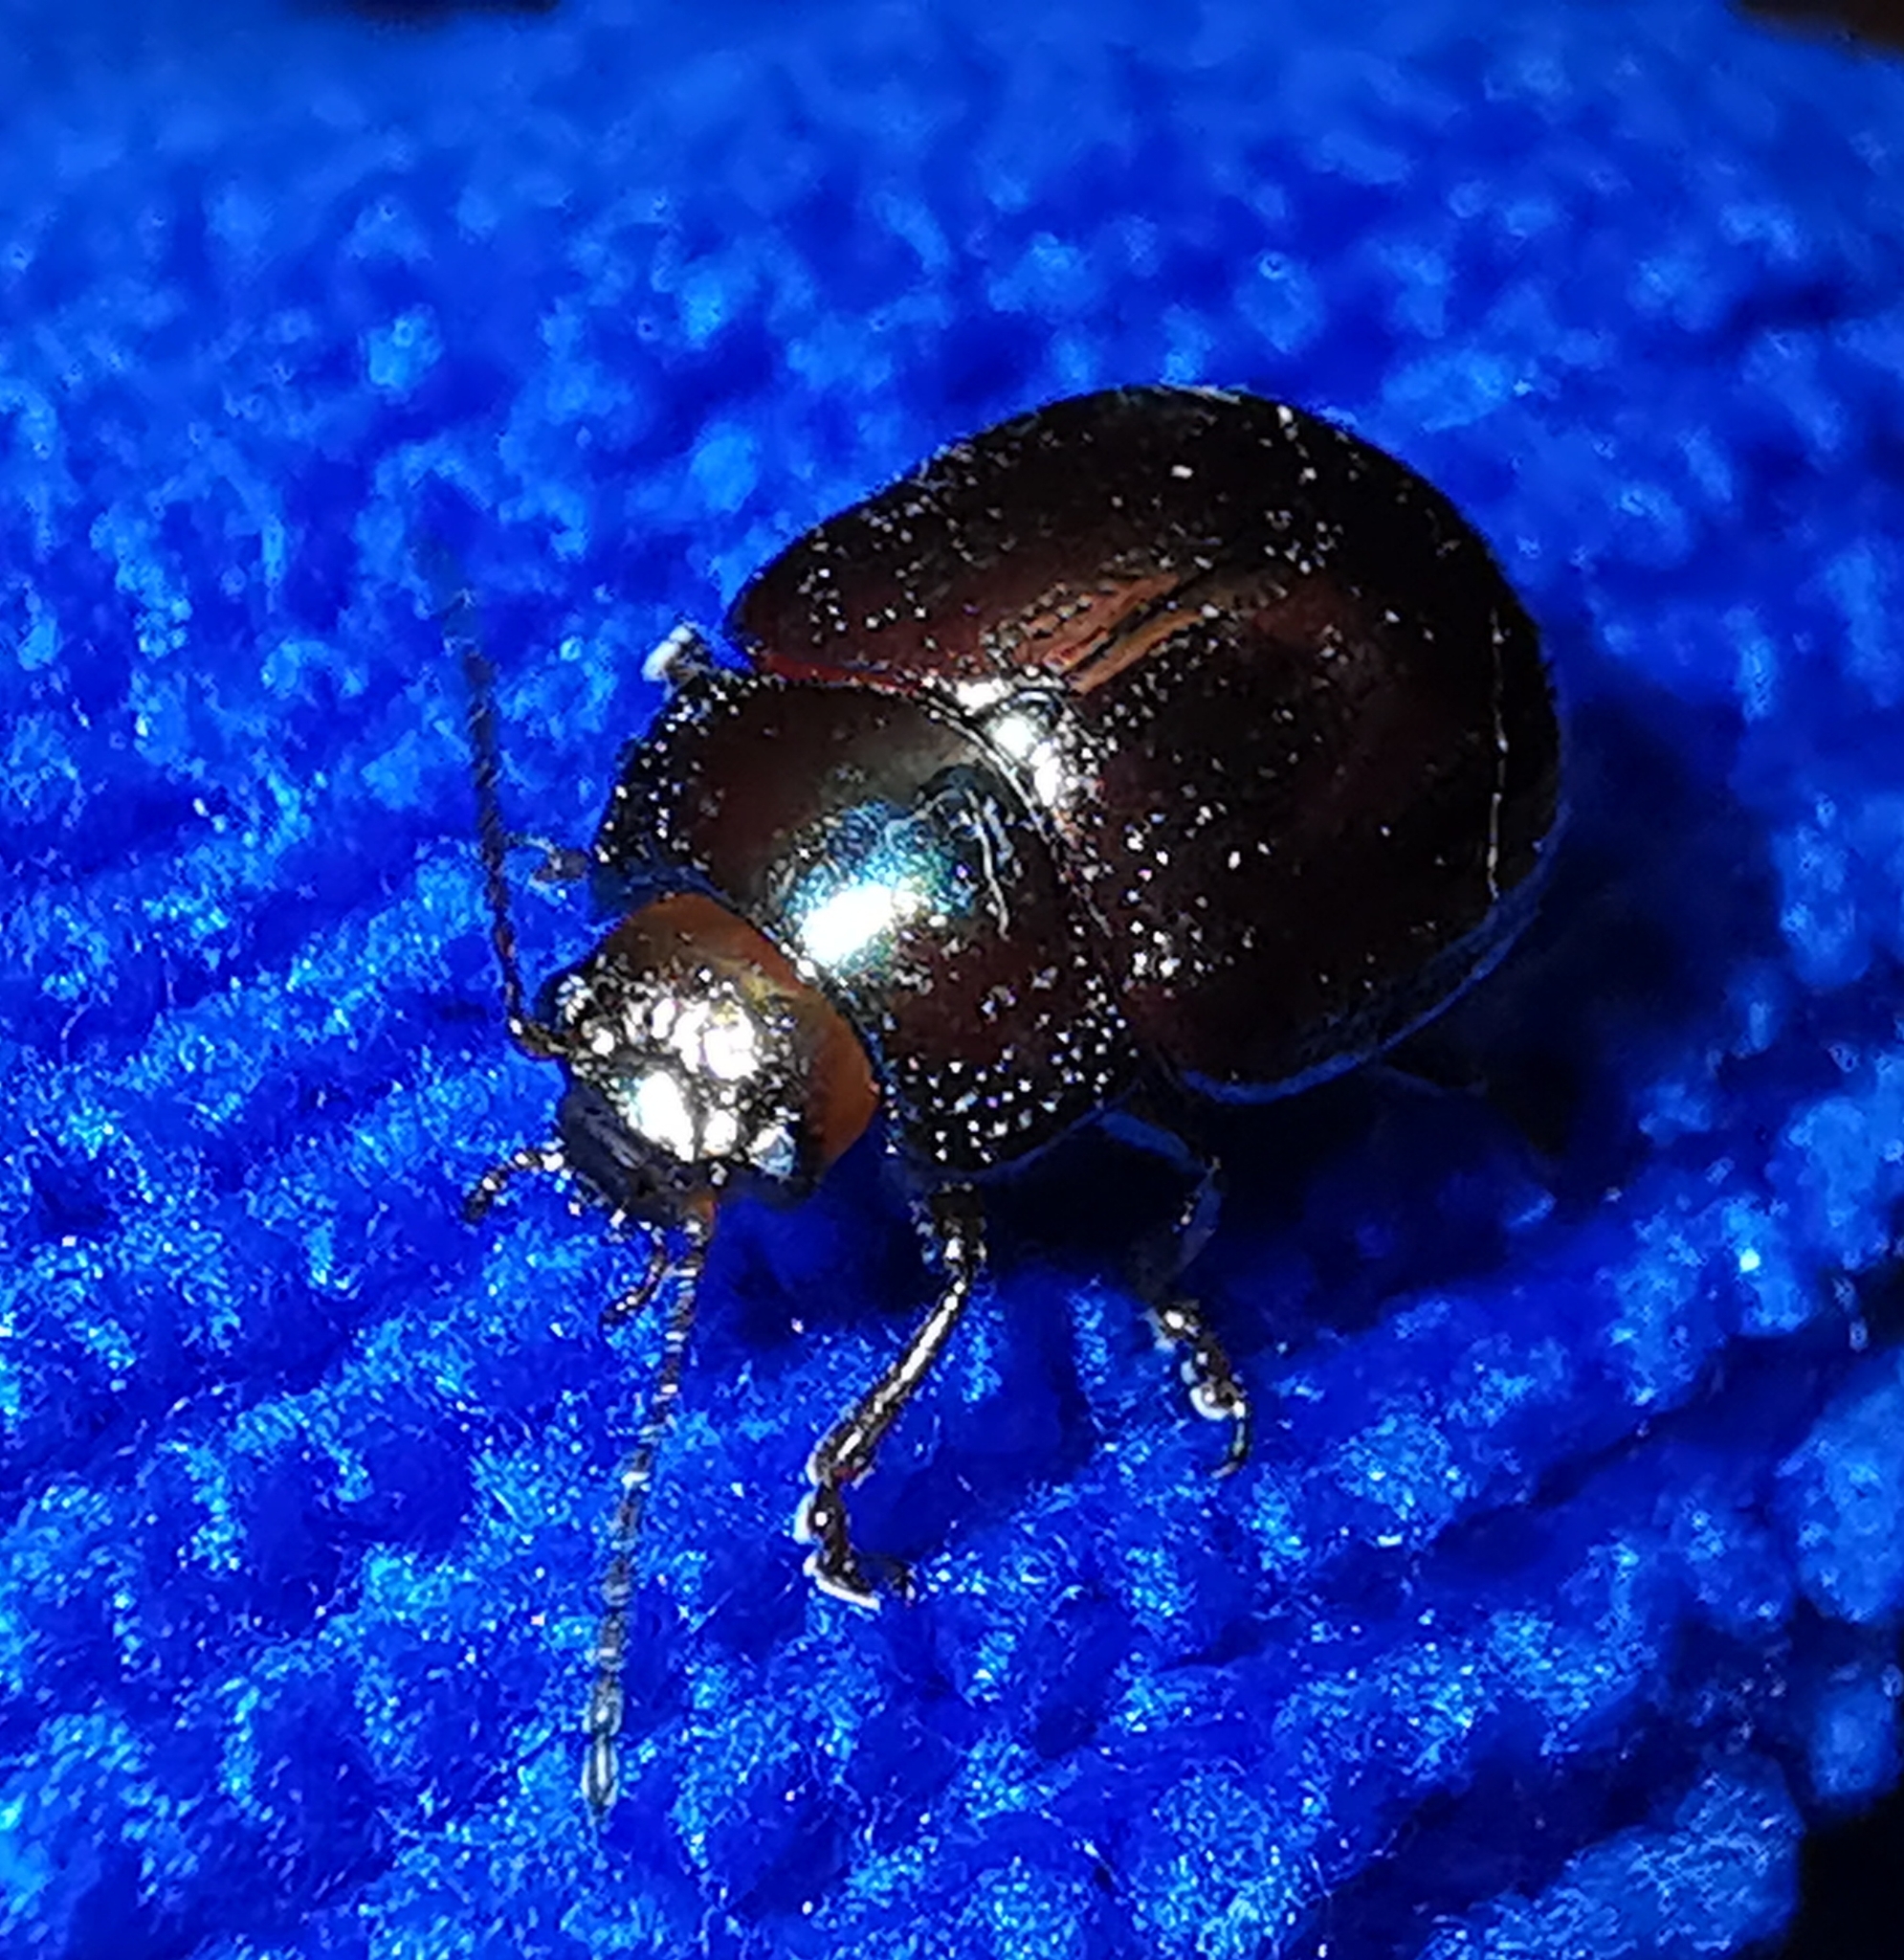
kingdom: Animalia
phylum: Arthropoda
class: Insecta
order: Coleoptera
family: Chrysomelidae
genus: Chrysolina
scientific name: Chrysolina americana
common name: Rosemary beetle
